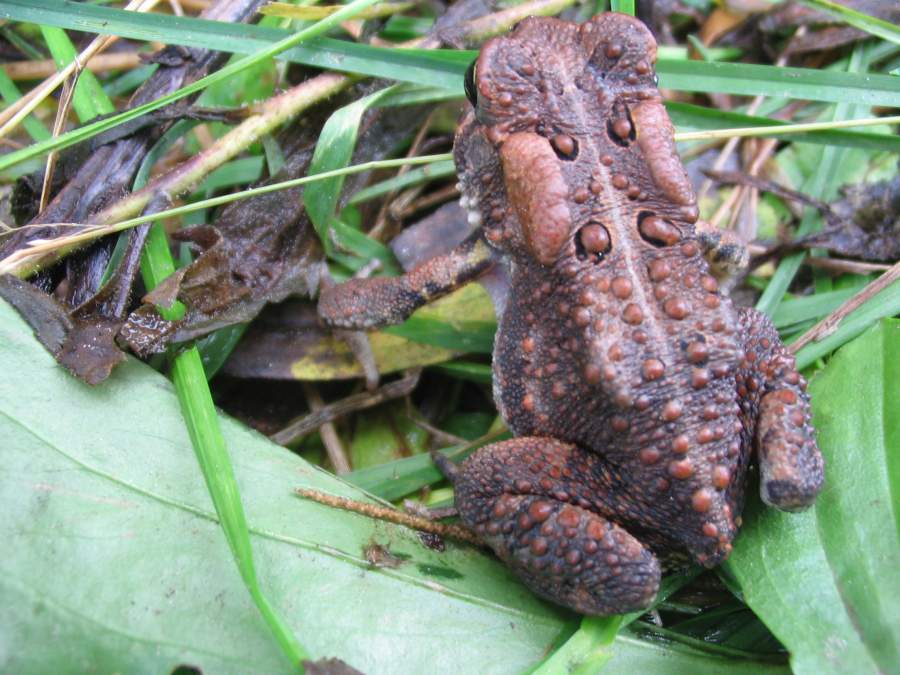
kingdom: Animalia
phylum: Chordata
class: Amphibia
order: Anura
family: Bufonidae
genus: Anaxyrus
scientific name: Anaxyrus americanus
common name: American toad
